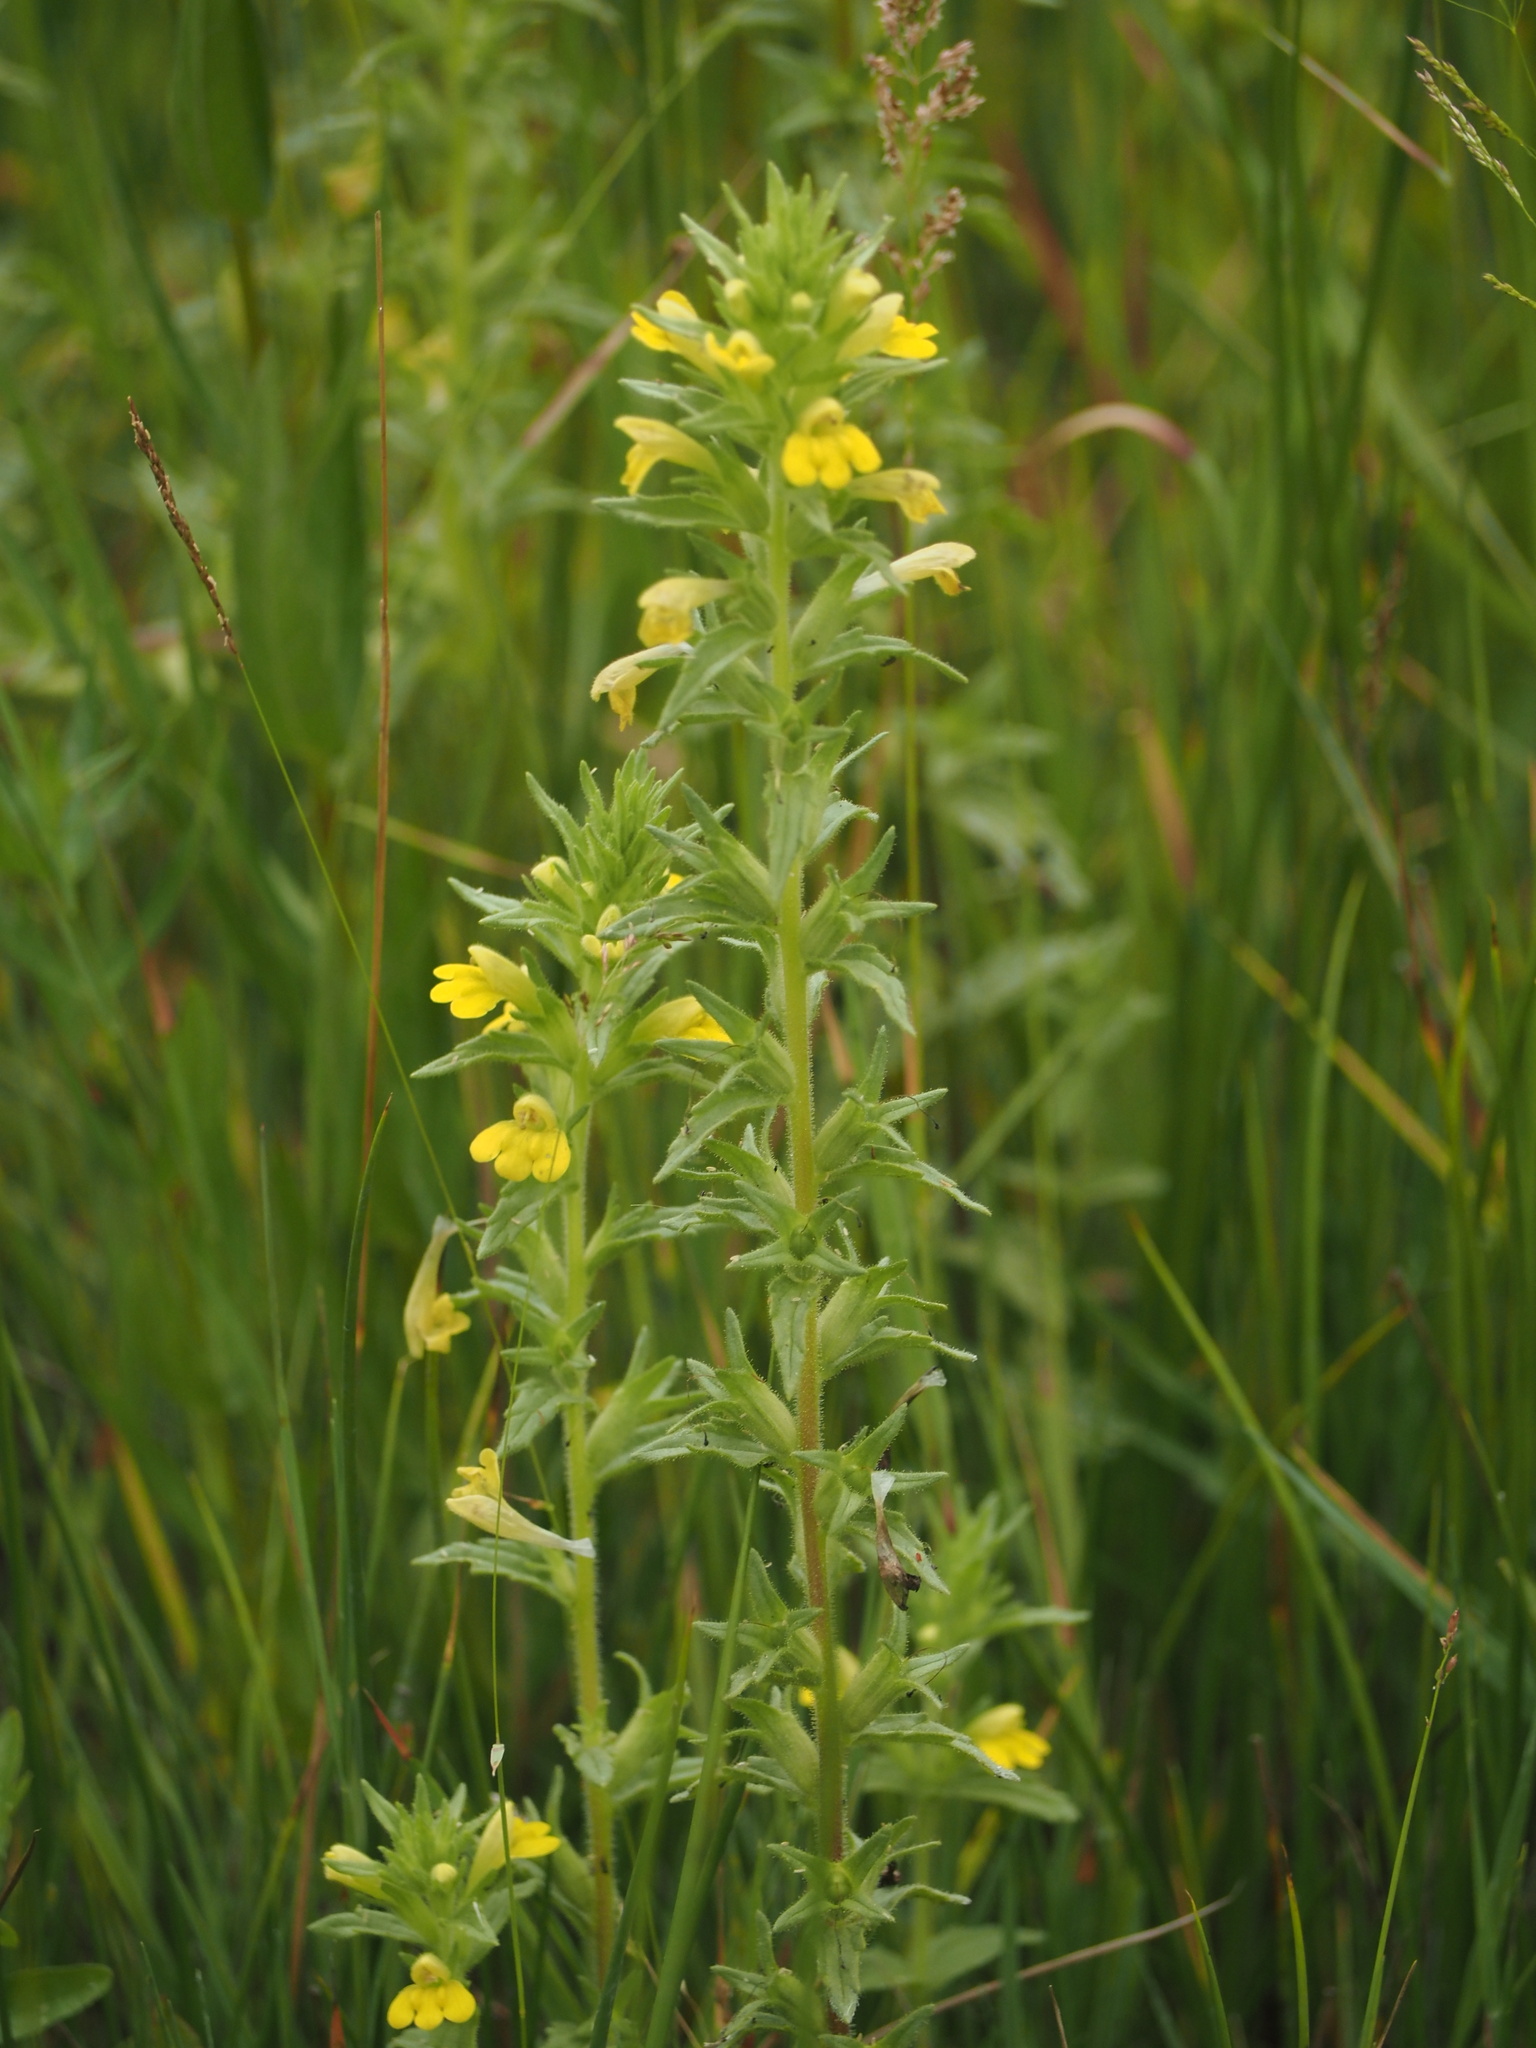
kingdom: Plantae
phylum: Tracheophyta
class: Magnoliopsida
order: Lamiales
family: Orobanchaceae
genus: Bellardia
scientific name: Bellardia viscosa
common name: Sticky parentucellia
